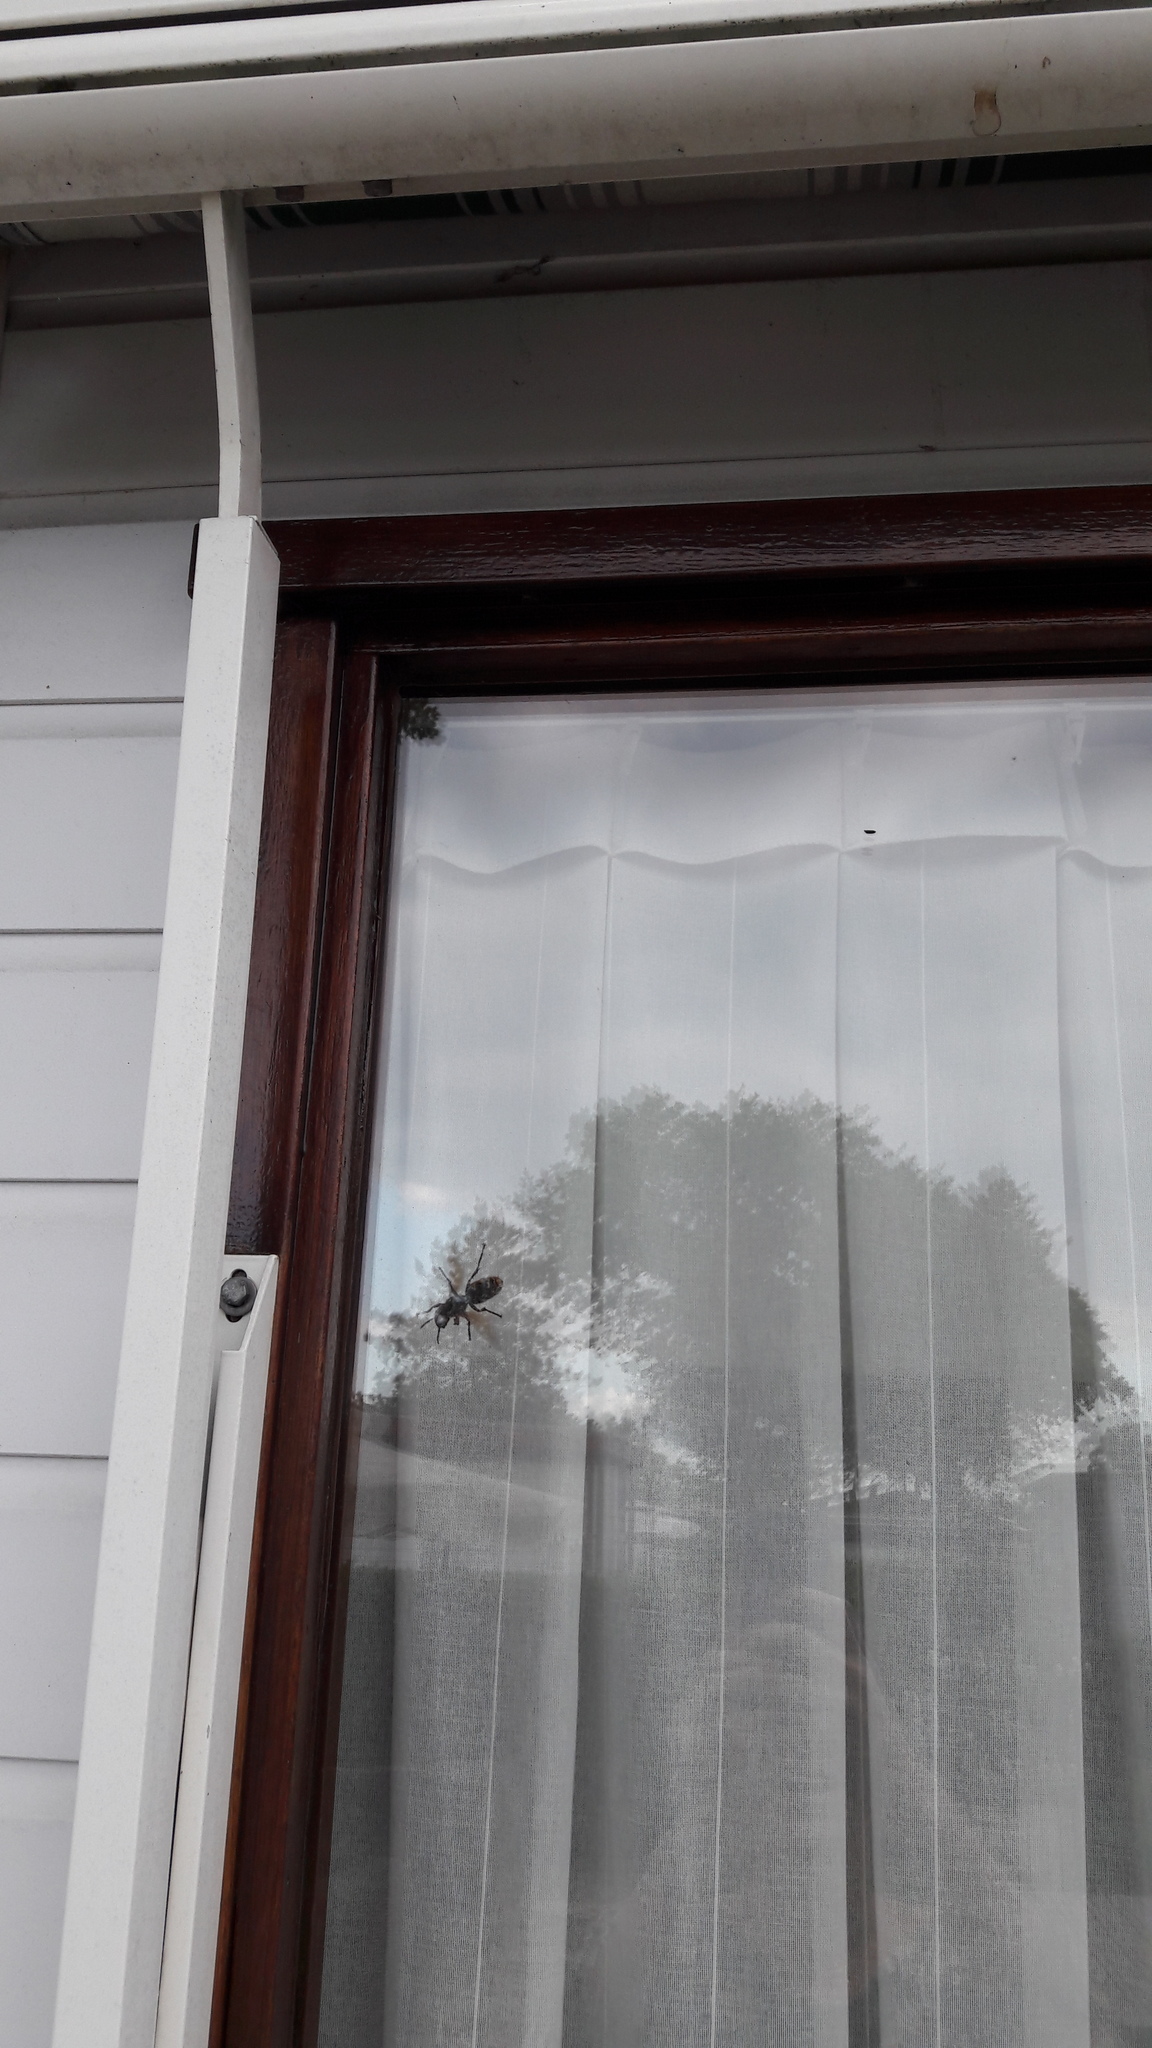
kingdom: Animalia
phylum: Arthropoda
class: Insecta
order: Hymenoptera
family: Vespidae
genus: Vespa
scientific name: Vespa crabro
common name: Hornet
